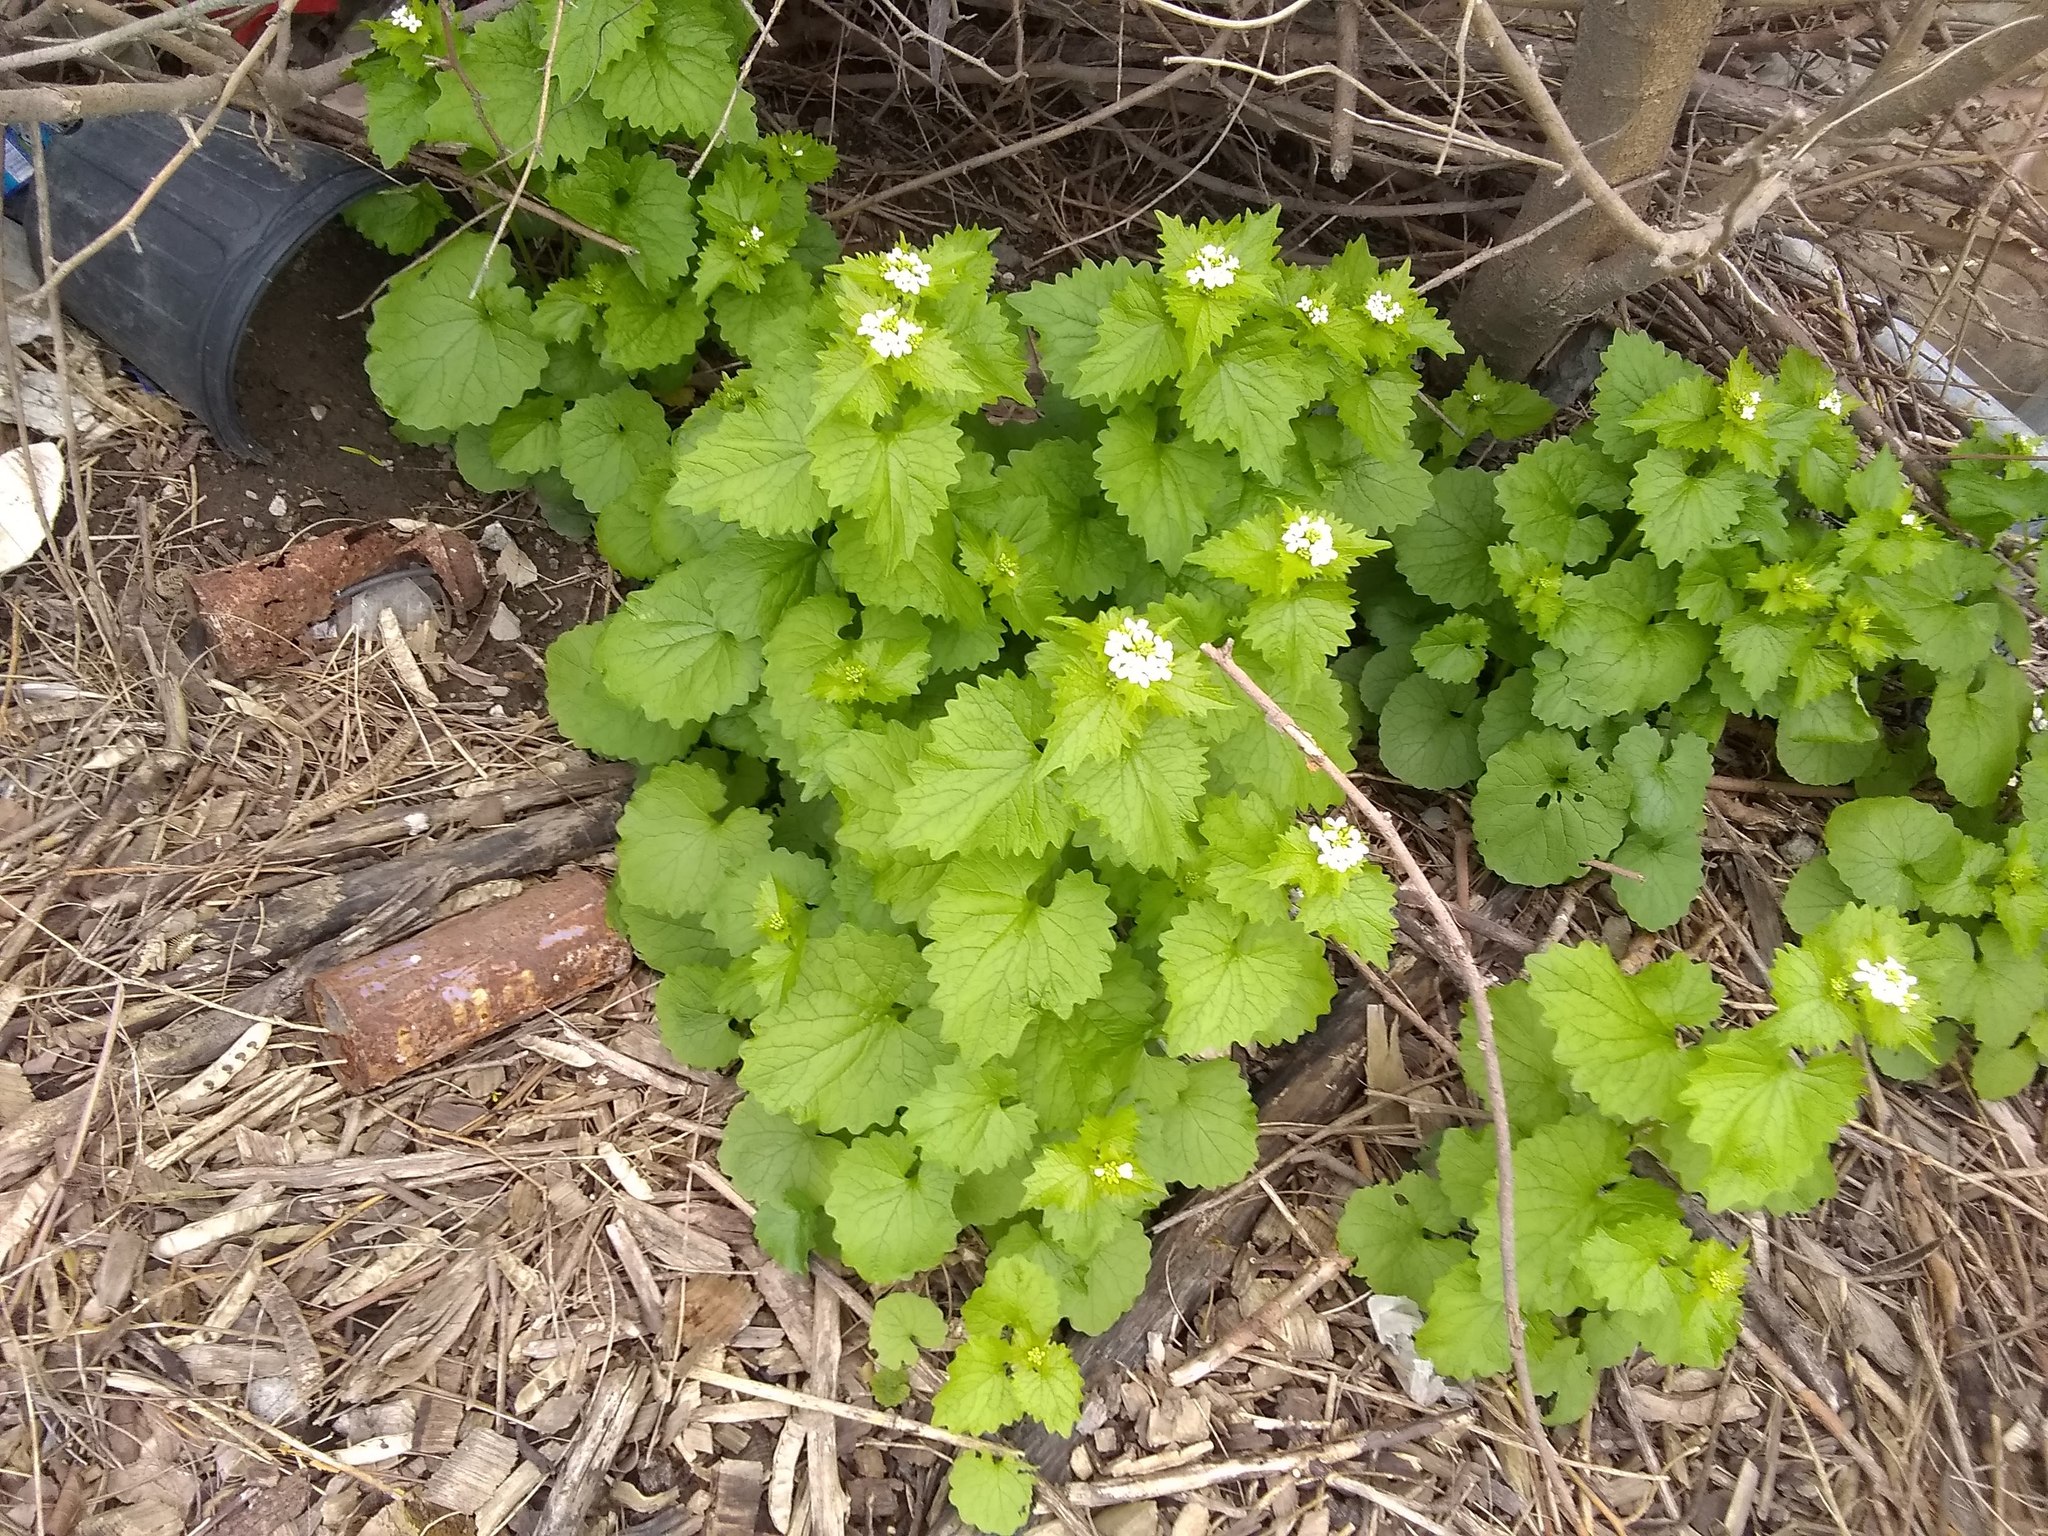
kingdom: Plantae
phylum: Tracheophyta
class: Magnoliopsida
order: Brassicales
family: Brassicaceae
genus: Alliaria
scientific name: Alliaria petiolata
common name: Garlic mustard
